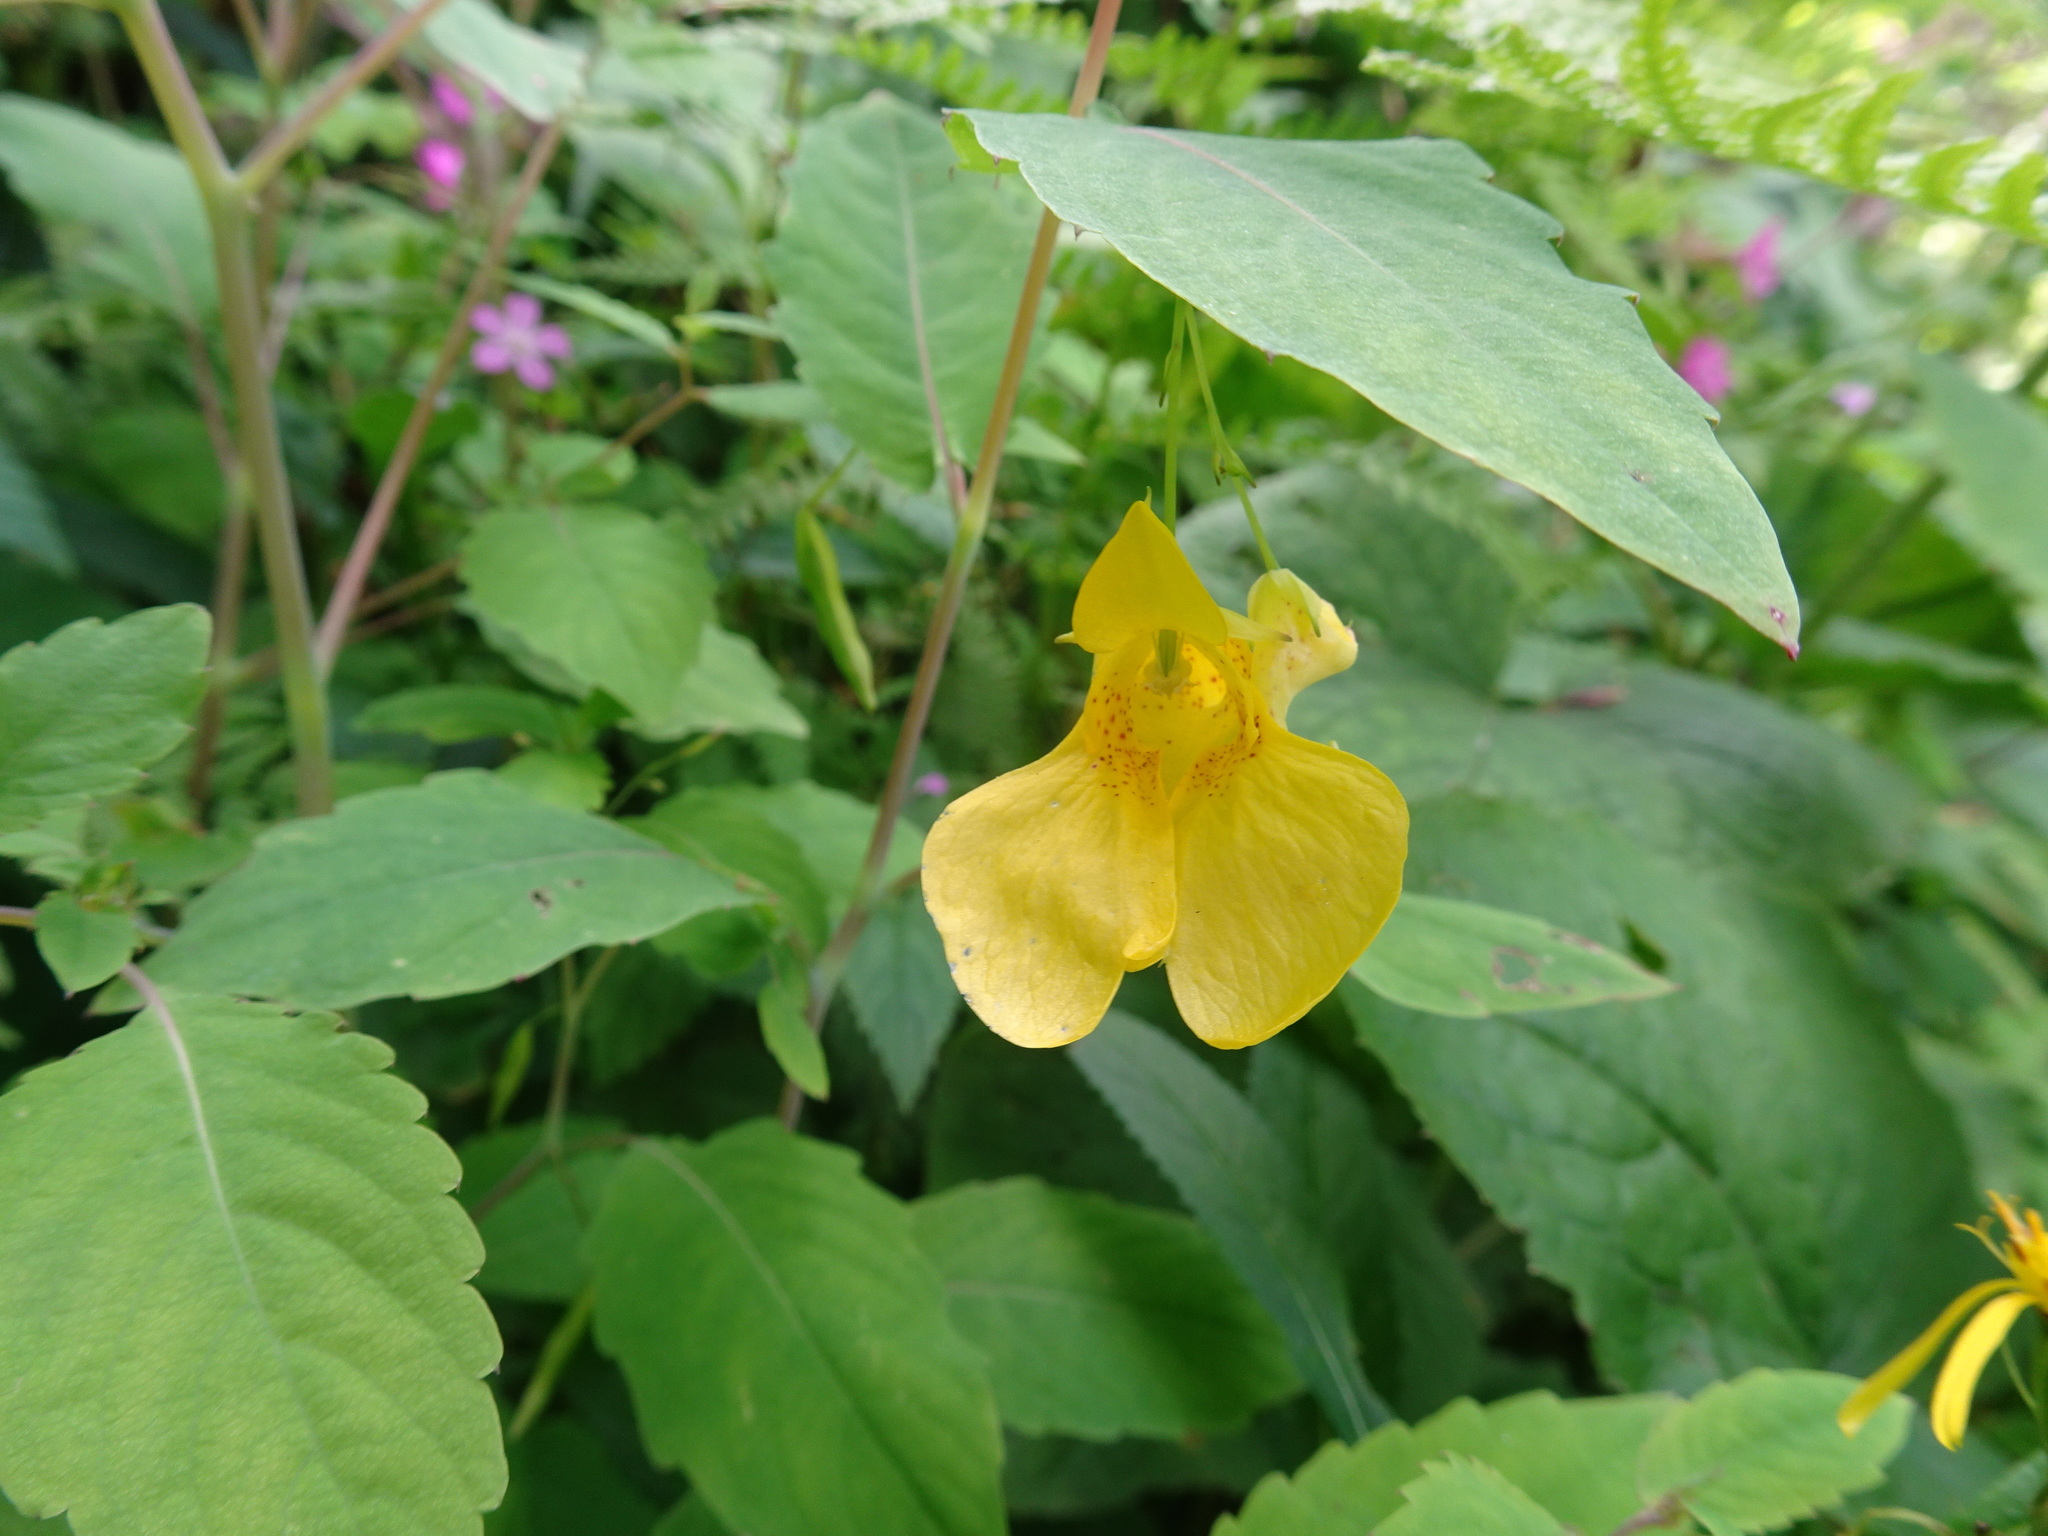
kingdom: Plantae
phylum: Tracheophyta
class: Magnoliopsida
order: Ericales
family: Balsaminaceae
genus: Impatiens
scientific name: Impatiens noli-tangere
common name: Touch-me-not balsam
